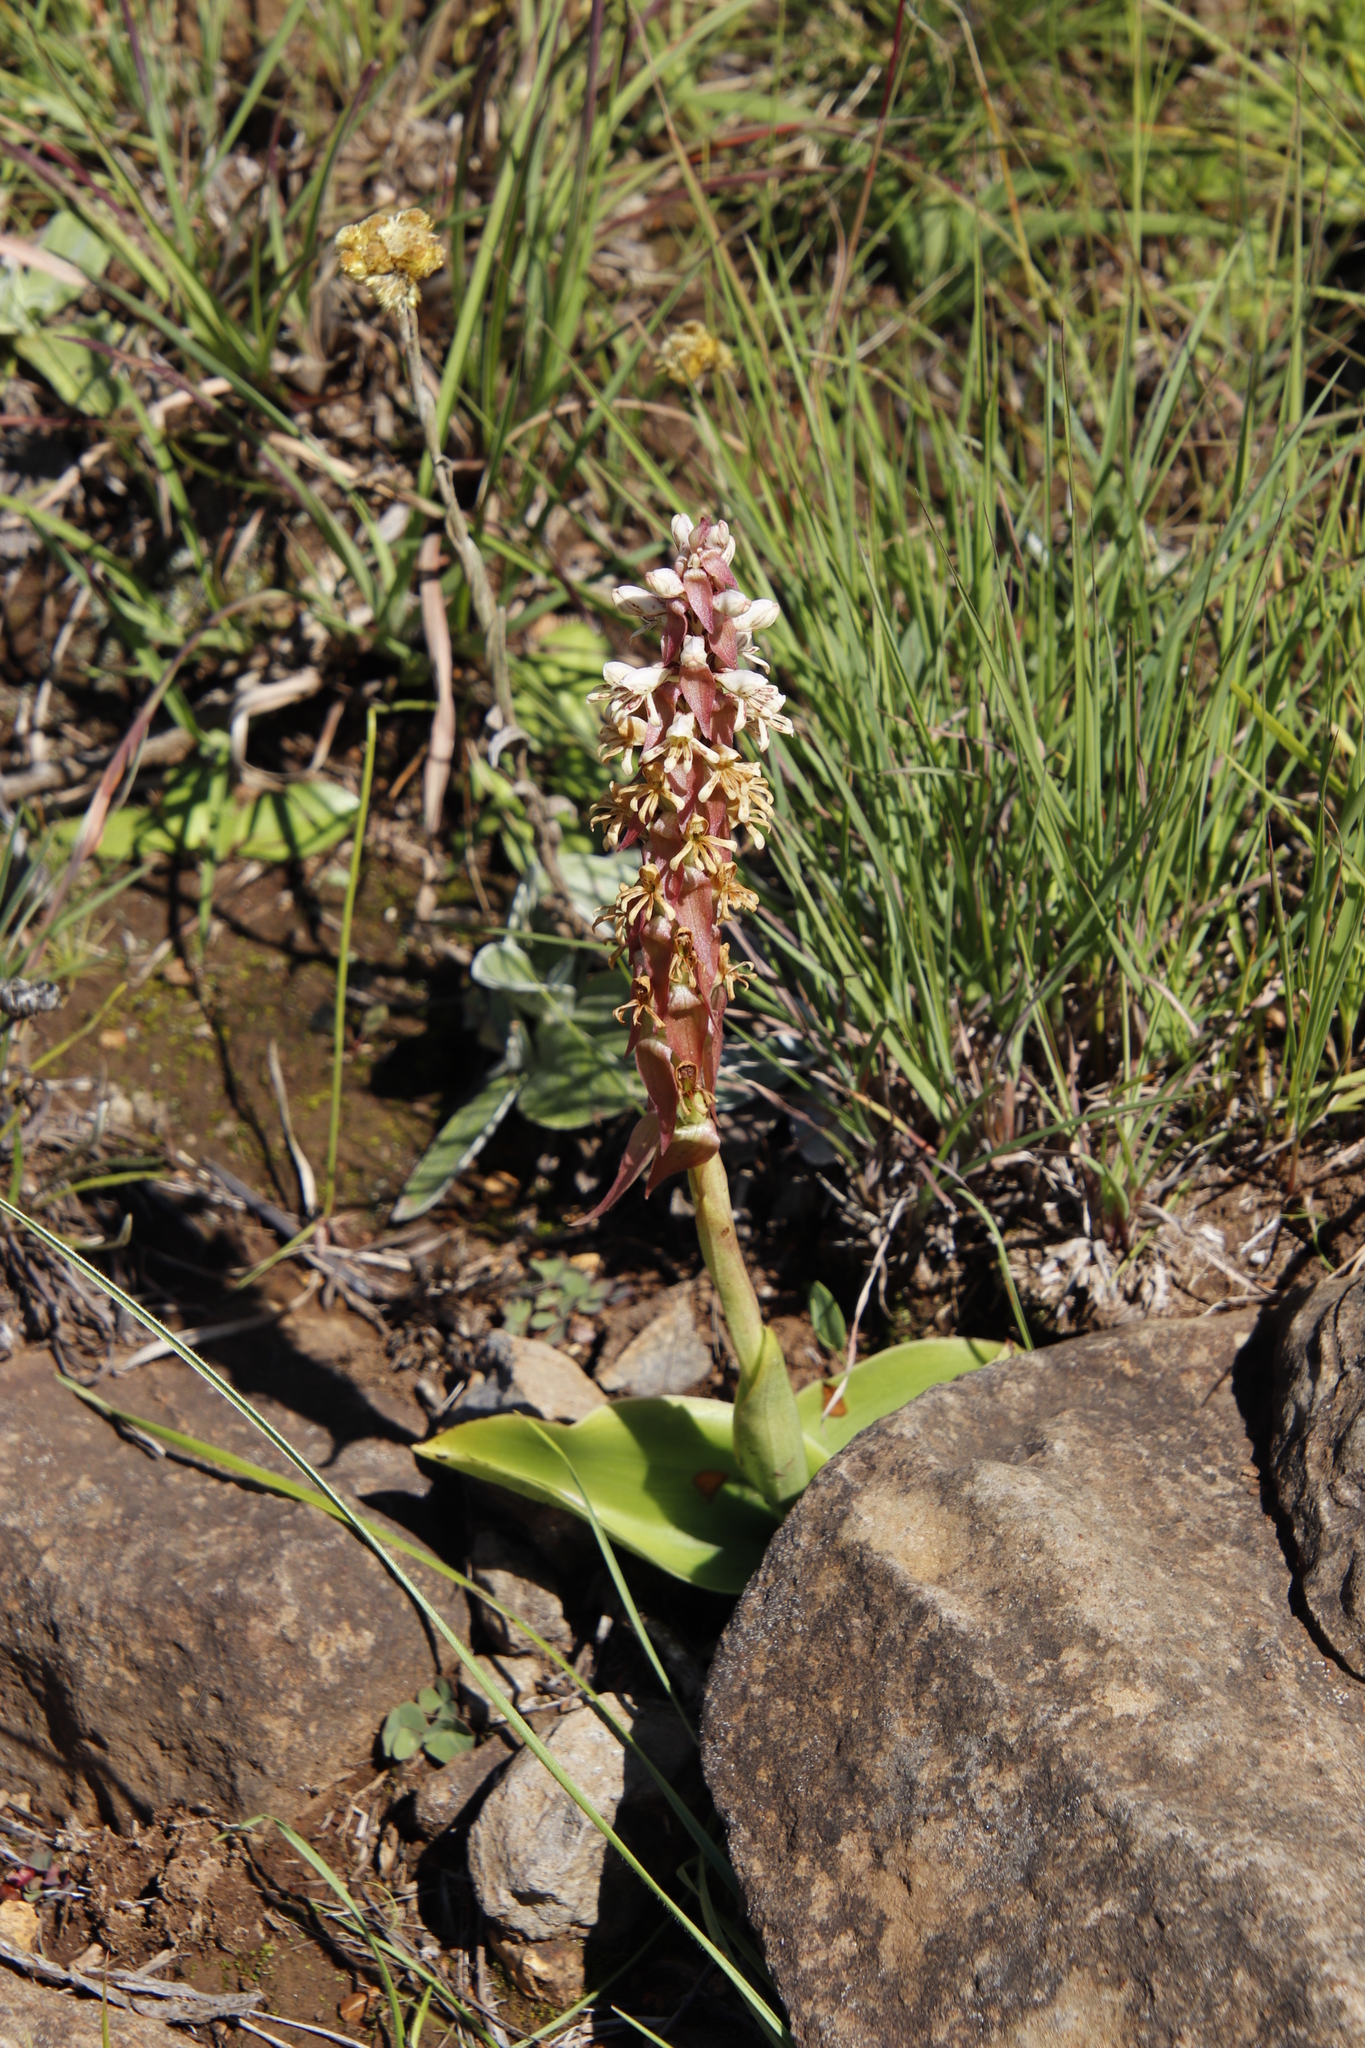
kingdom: Plantae
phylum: Tracheophyta
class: Liliopsida
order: Asparagales
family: Orchidaceae
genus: Satyrium
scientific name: Satyrium cristatum
